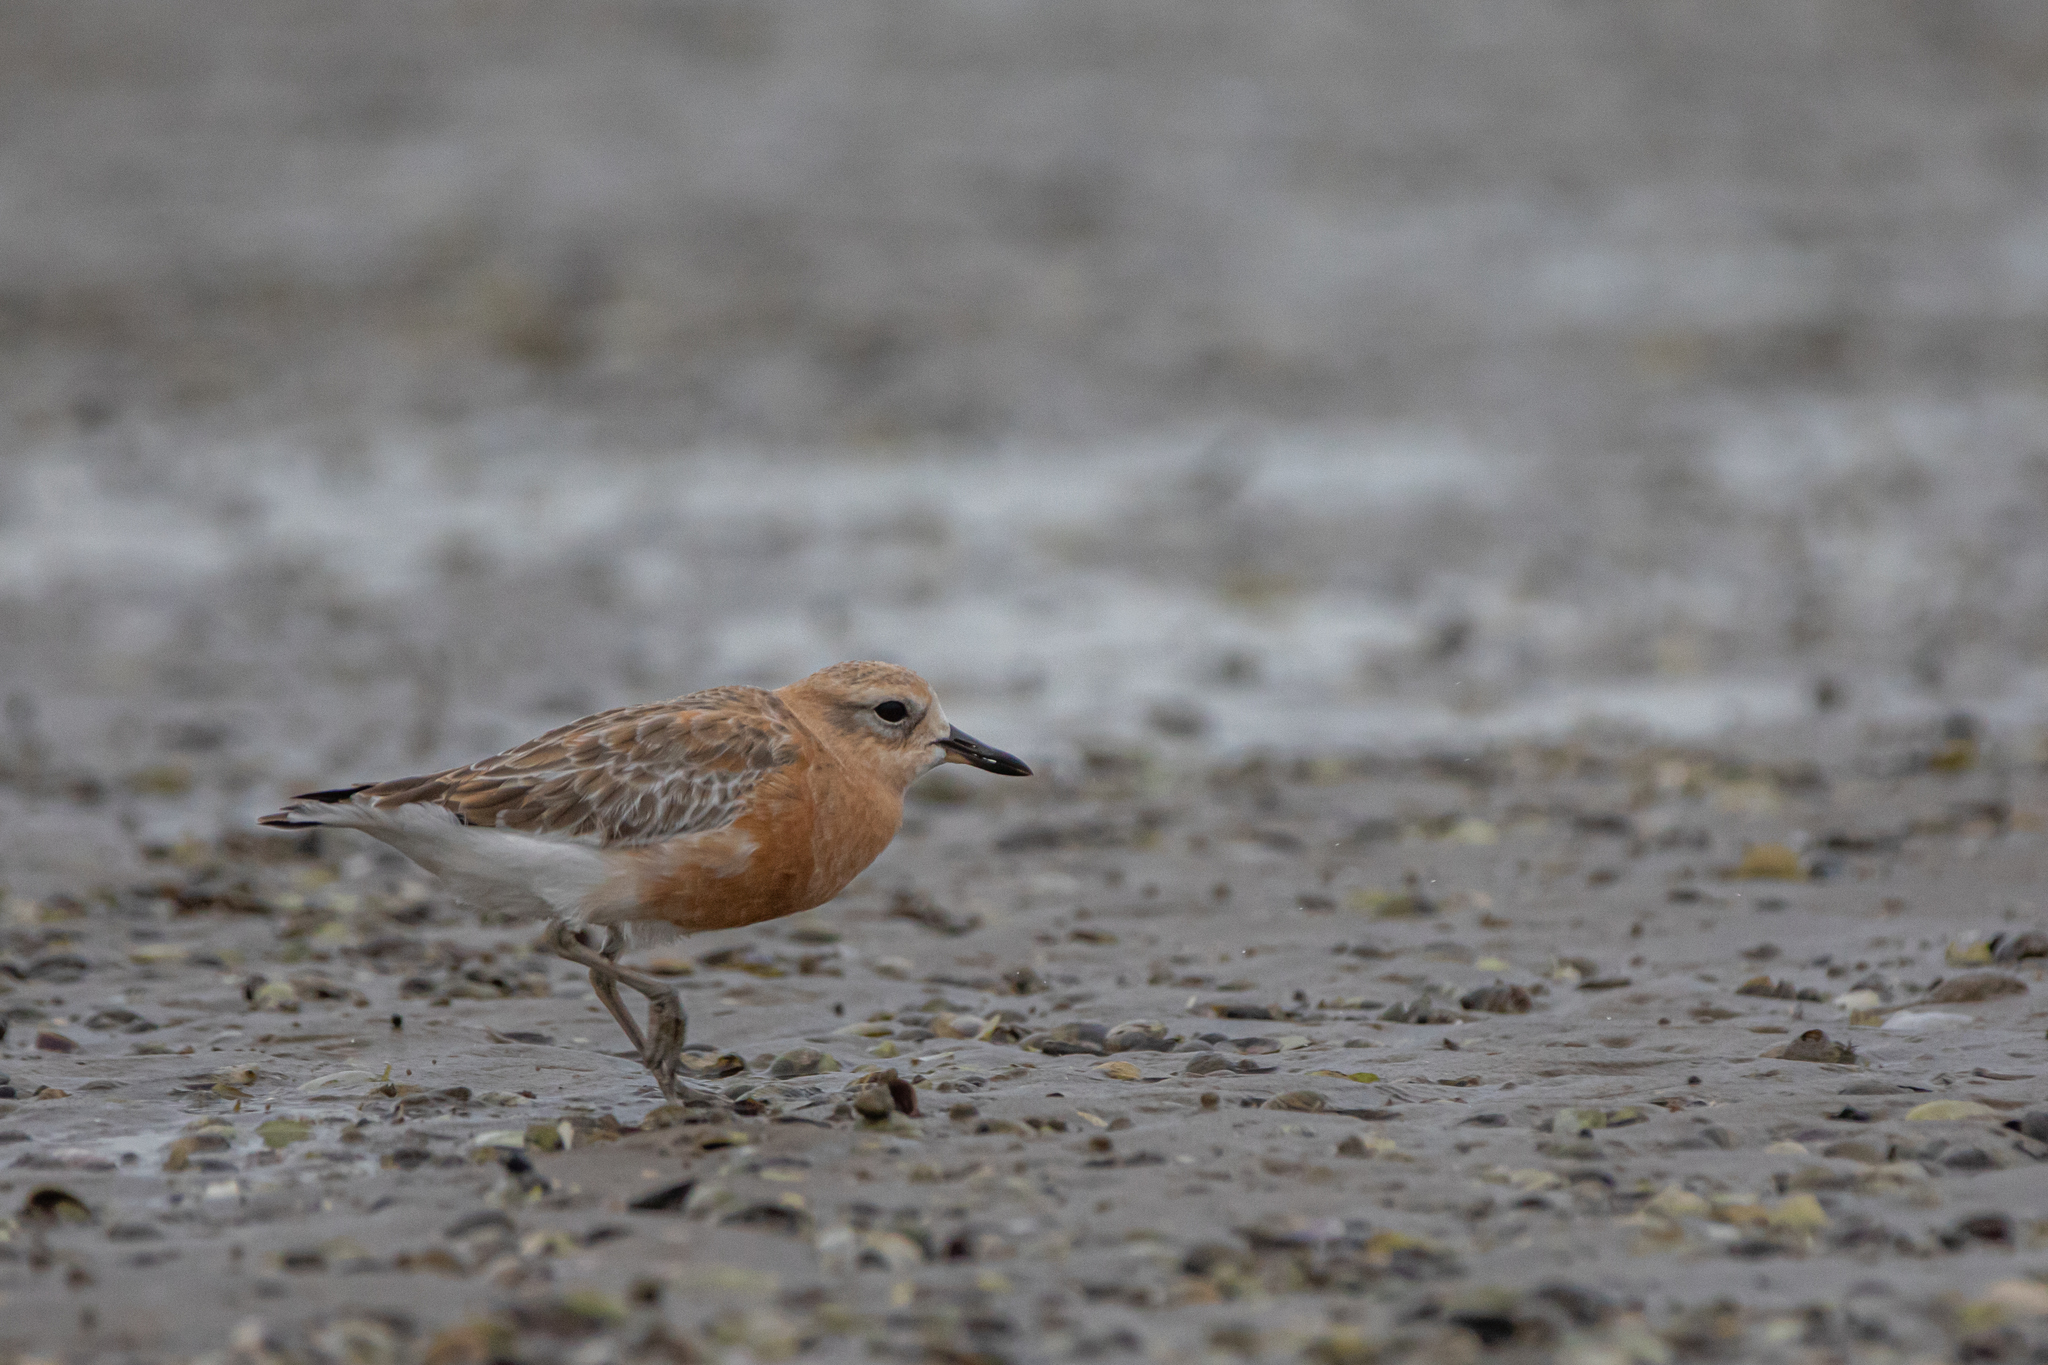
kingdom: Animalia
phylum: Chordata
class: Aves
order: Charadriiformes
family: Charadriidae
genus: Anarhynchus
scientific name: Anarhynchus
